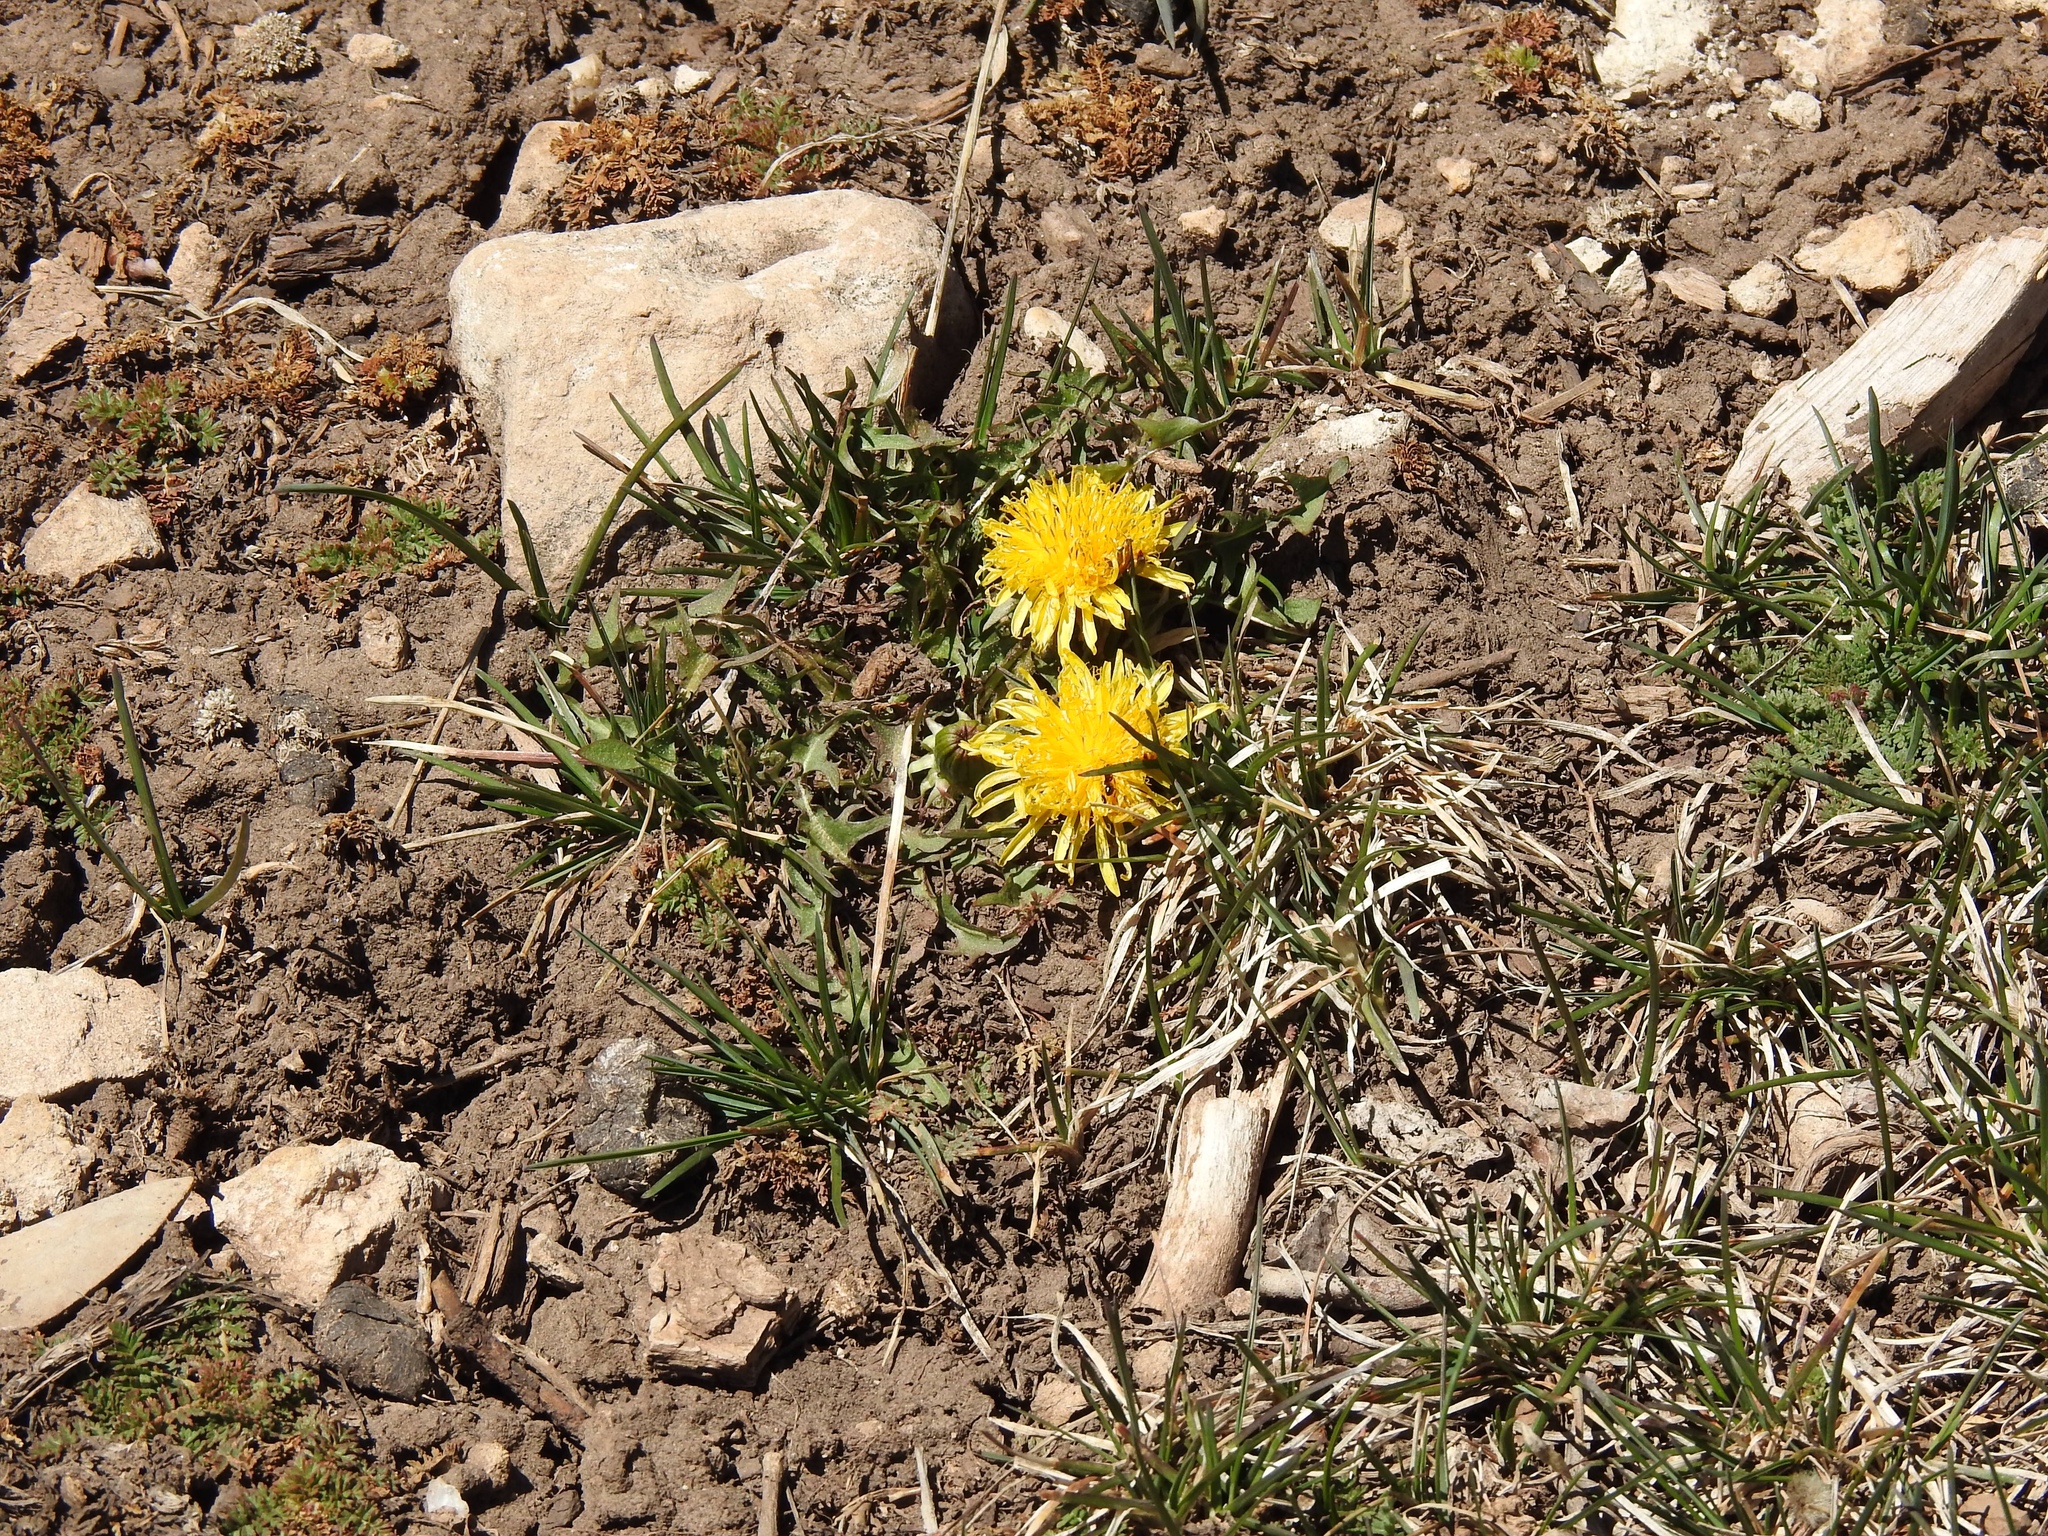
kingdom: Plantae
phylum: Tracheophyta
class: Magnoliopsida
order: Asterales
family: Asteraceae
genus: Taraxacum
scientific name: Taraxacum officinale
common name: Common dandelion
